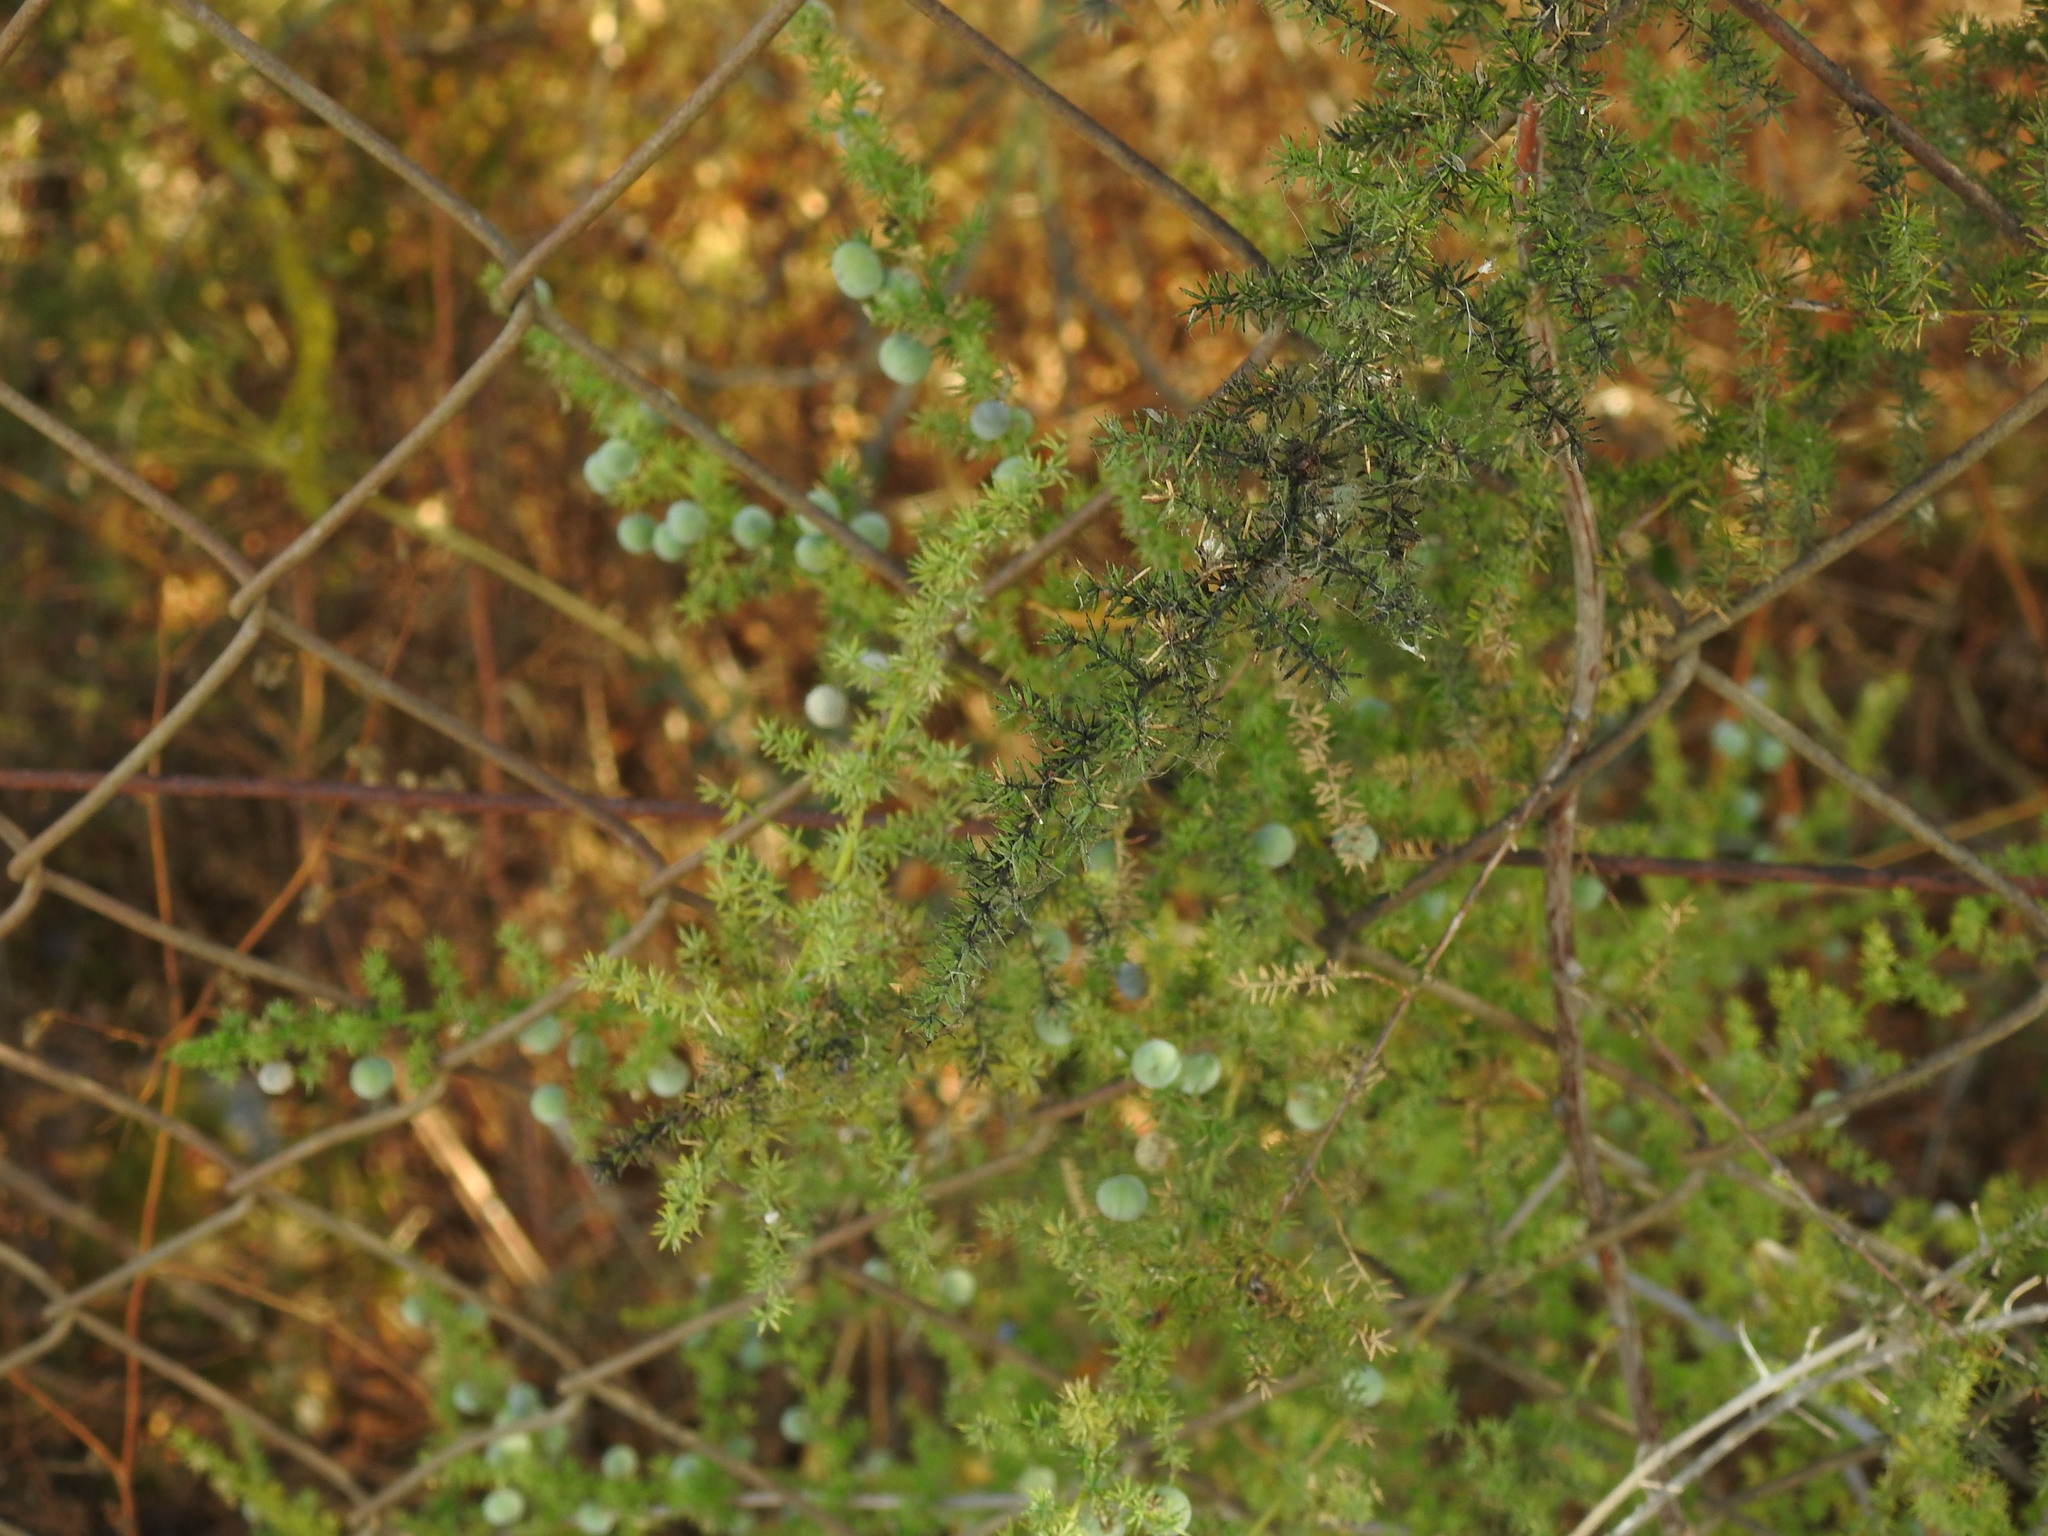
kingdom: Plantae
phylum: Tracheophyta
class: Liliopsida
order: Asparagales
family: Asparagaceae
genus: Asparagus
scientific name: Asparagus acutifolius
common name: Wild asparagus
